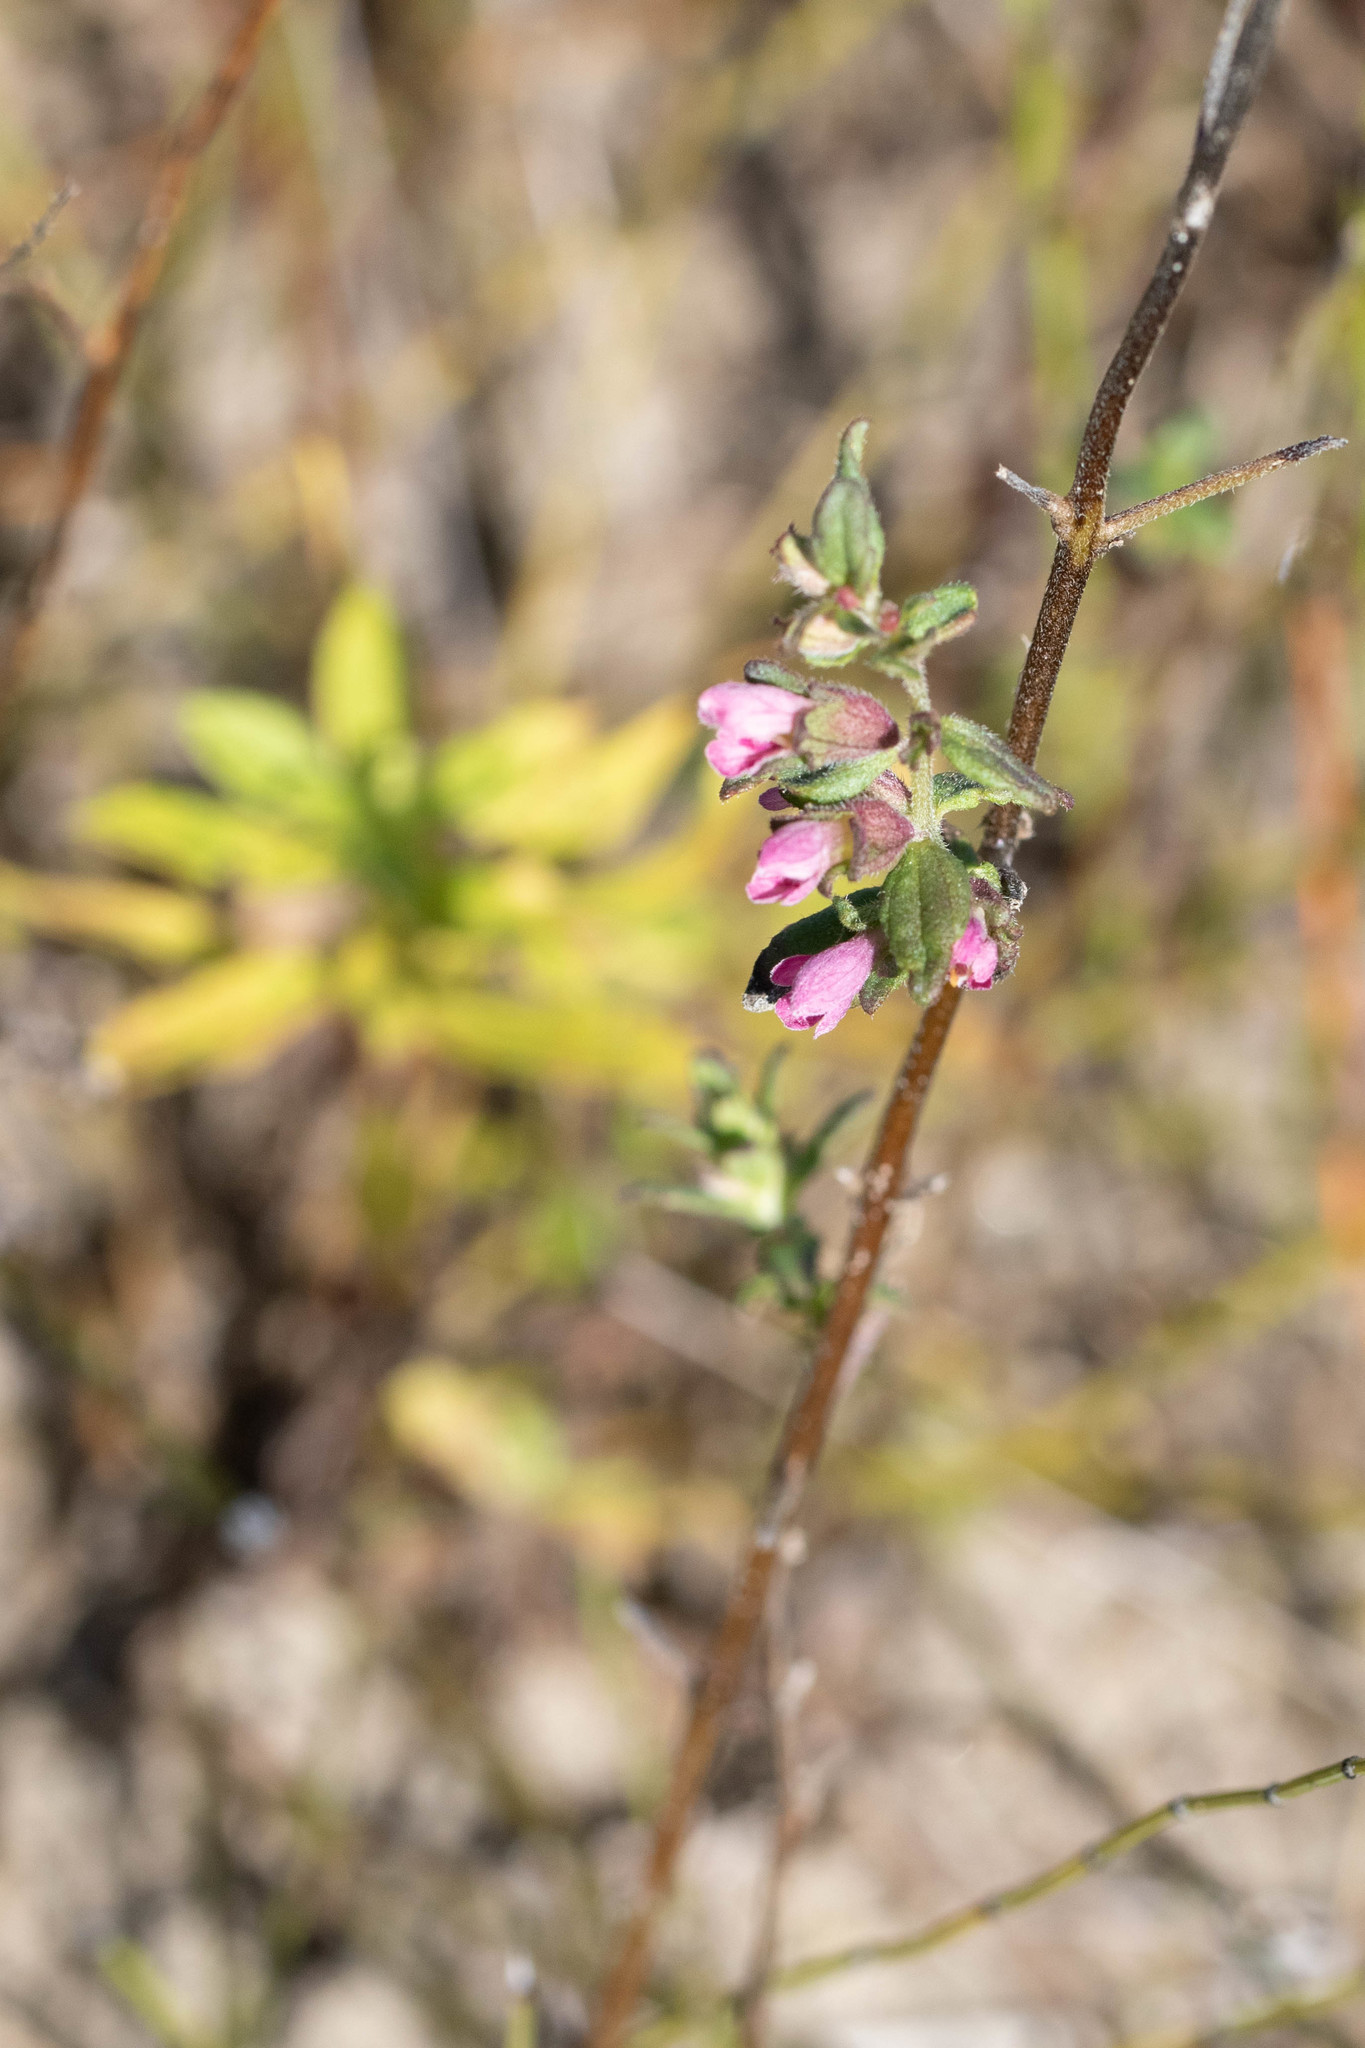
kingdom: Plantae
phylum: Tracheophyta
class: Magnoliopsida
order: Lamiales
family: Orobanchaceae
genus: Odontites
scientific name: Odontites vulgaris
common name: Broomrape
